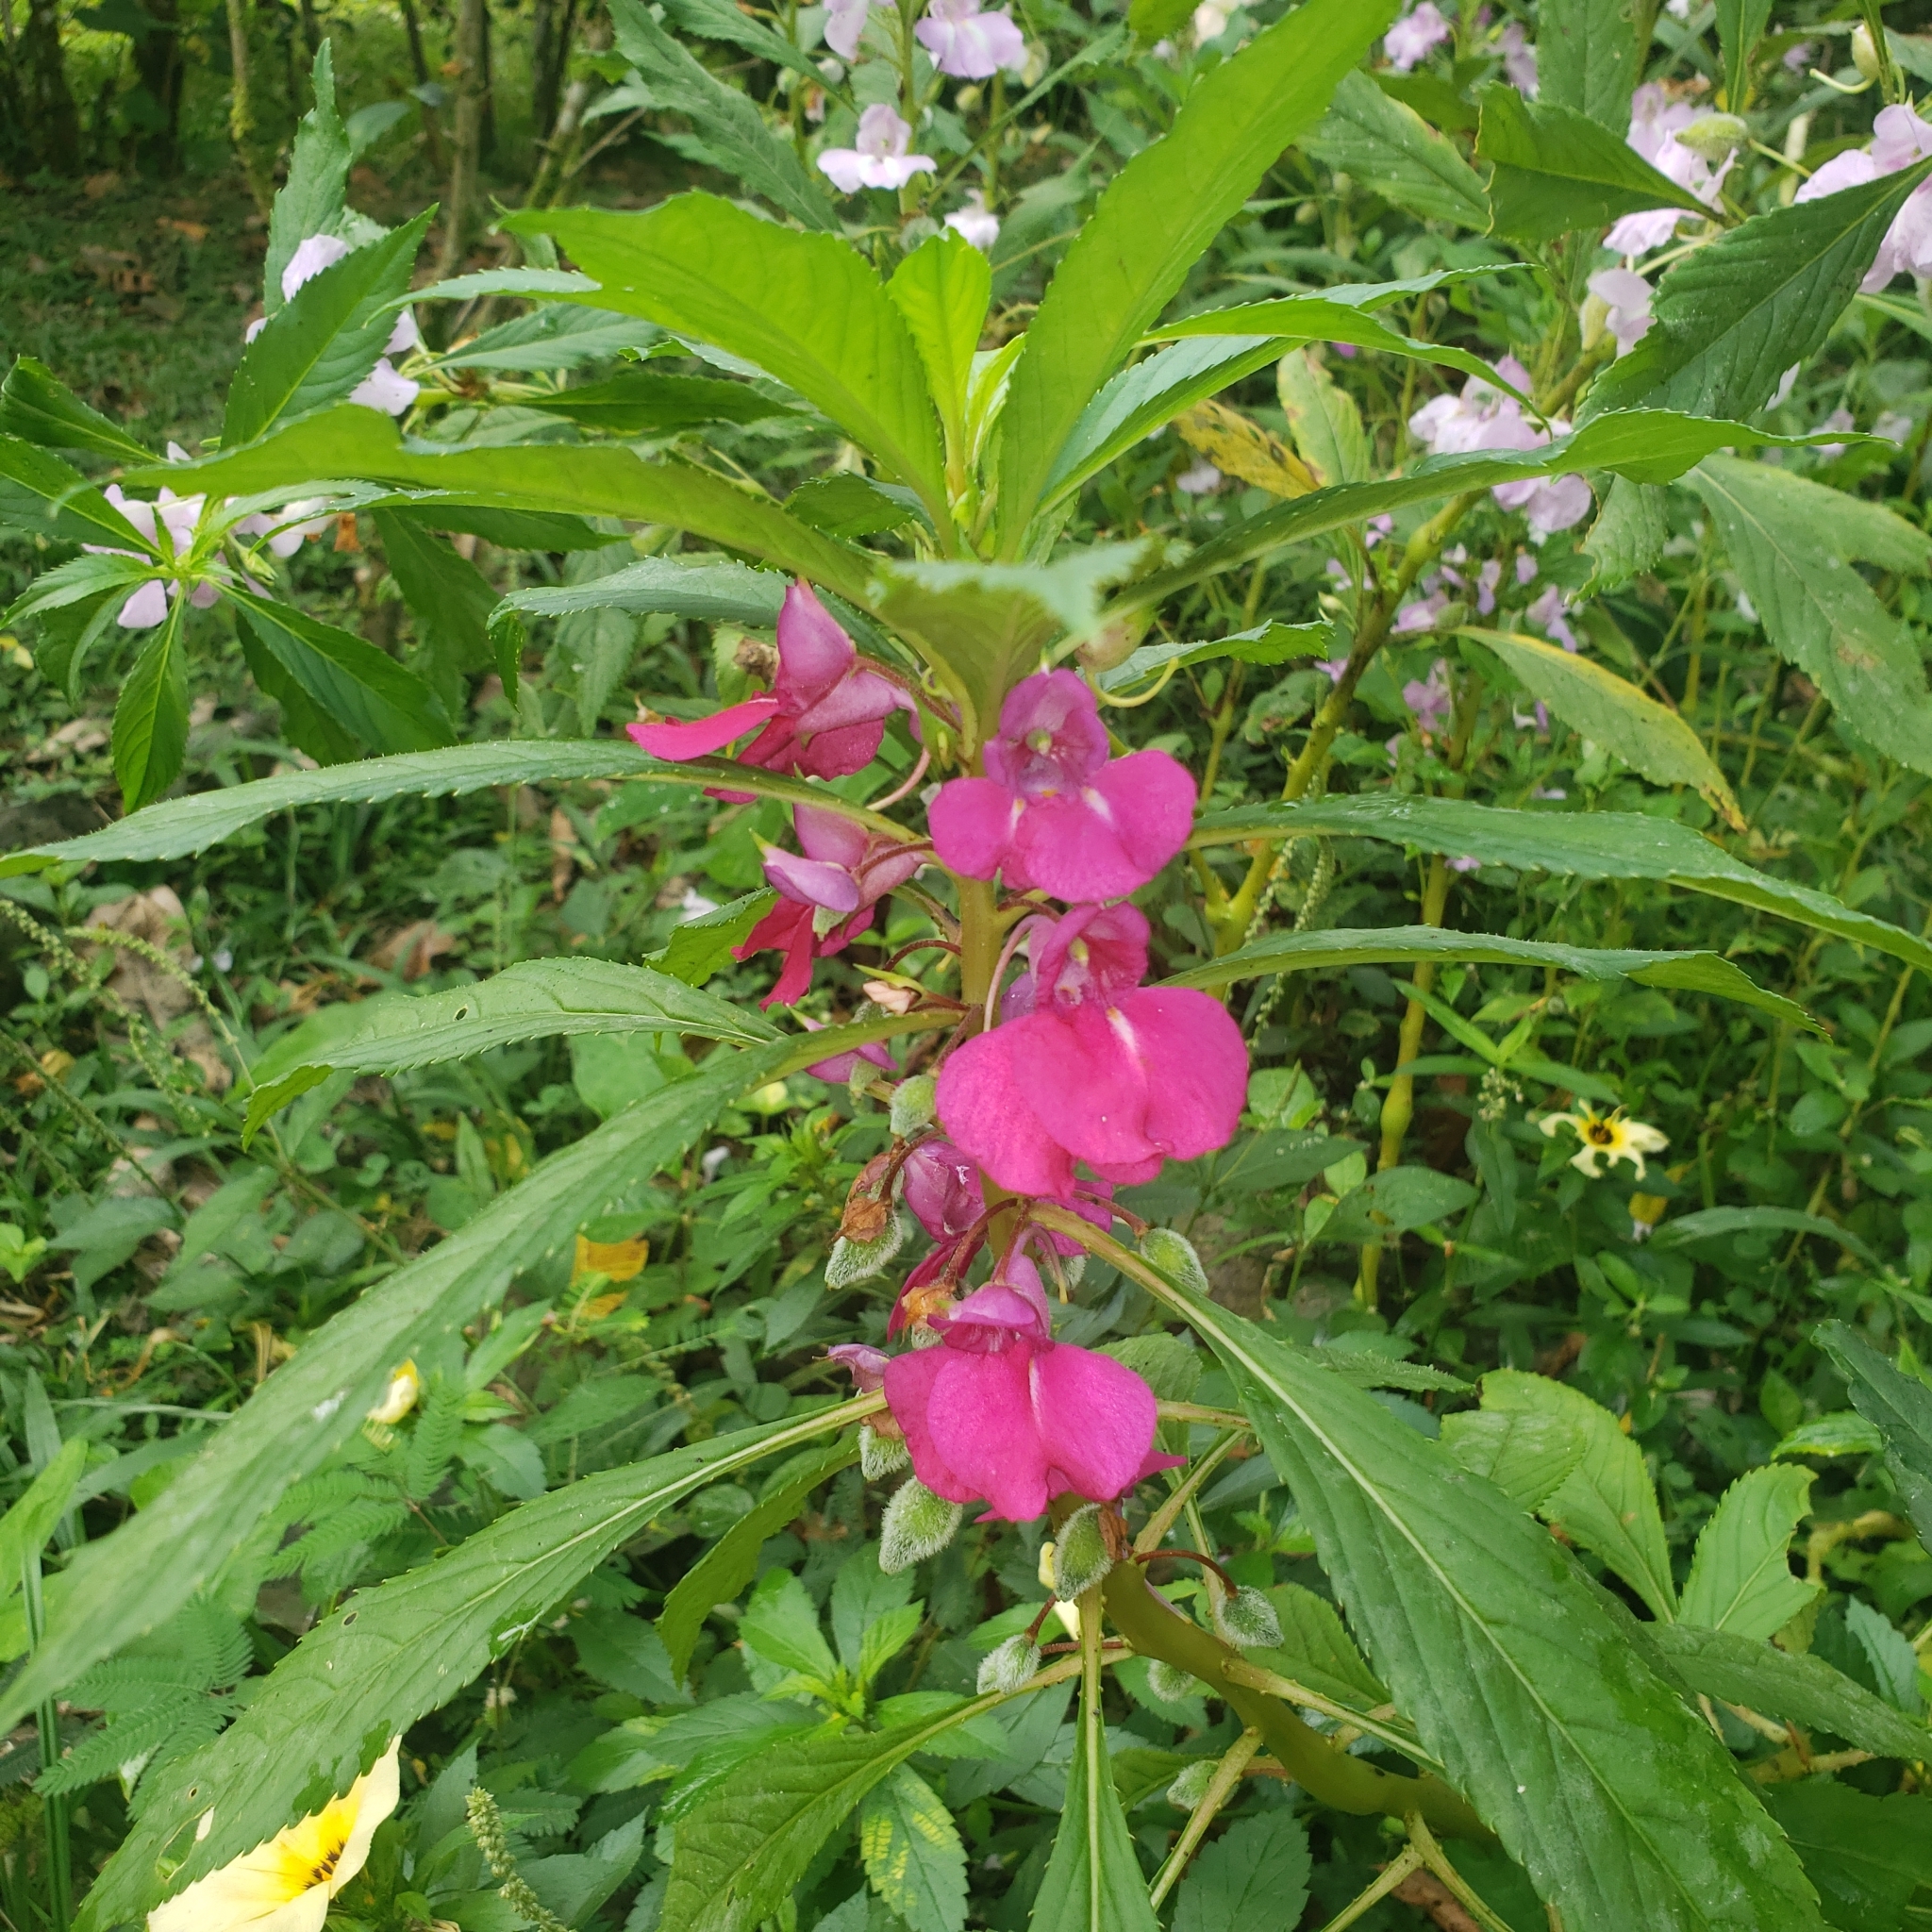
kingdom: Plantae
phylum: Tracheophyta
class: Magnoliopsida
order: Ericales
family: Balsaminaceae
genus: Impatiens
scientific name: Impatiens balsamina
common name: Balsam
